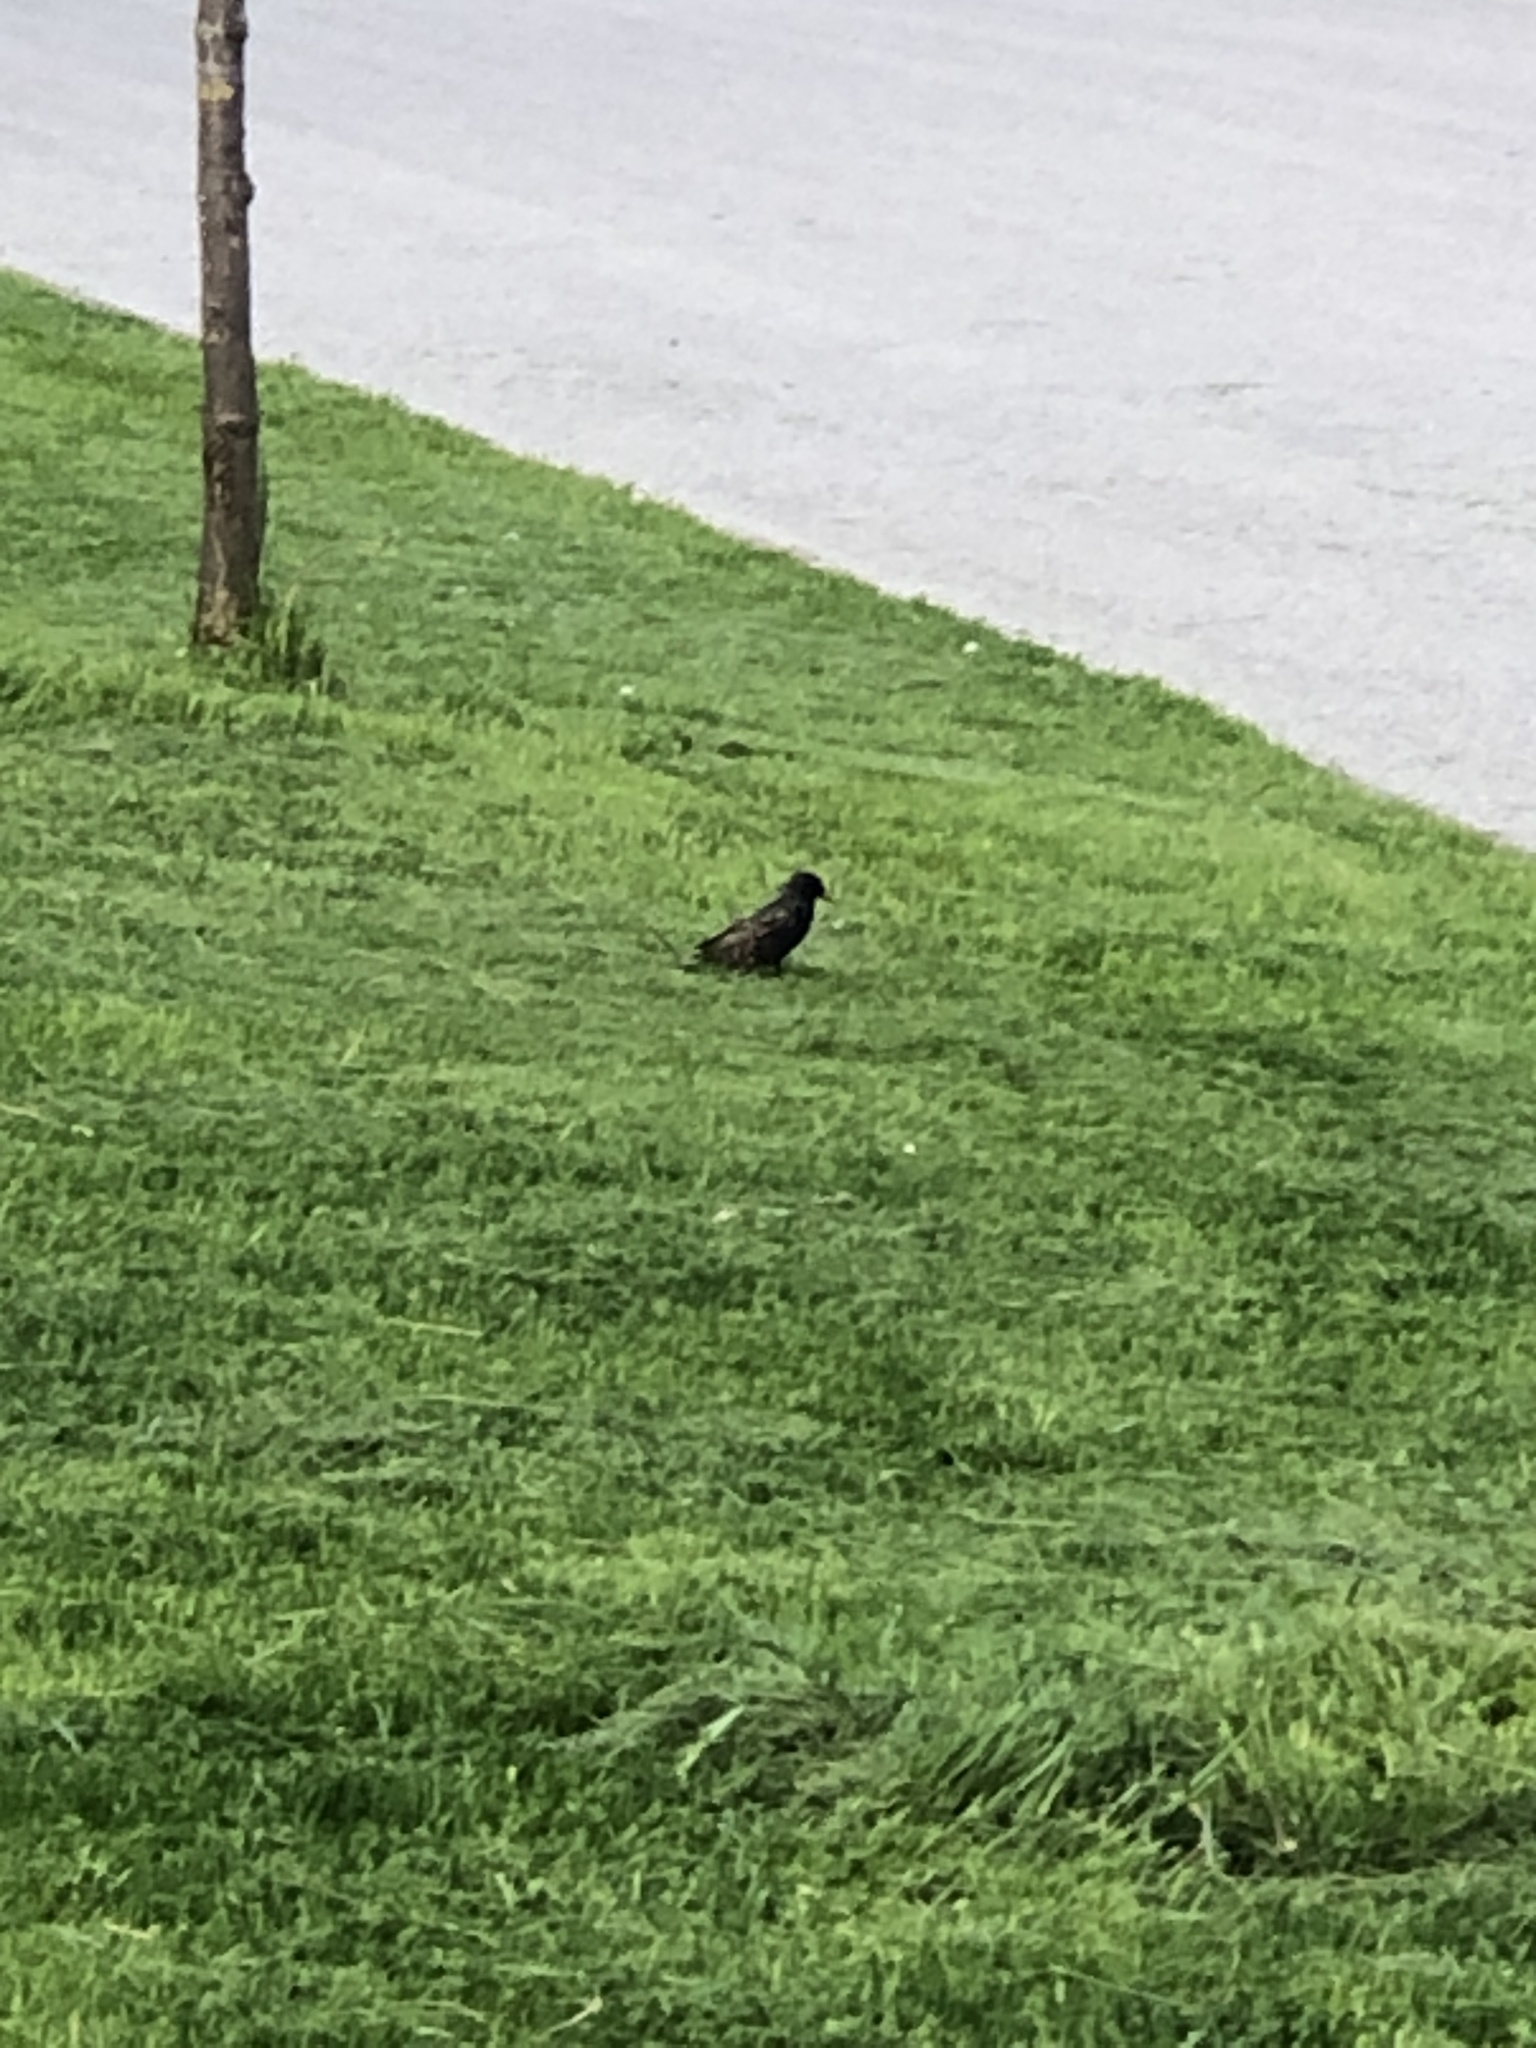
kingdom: Animalia
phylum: Chordata
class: Aves
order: Passeriformes
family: Sturnidae
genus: Sturnus
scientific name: Sturnus vulgaris
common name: Common starling
